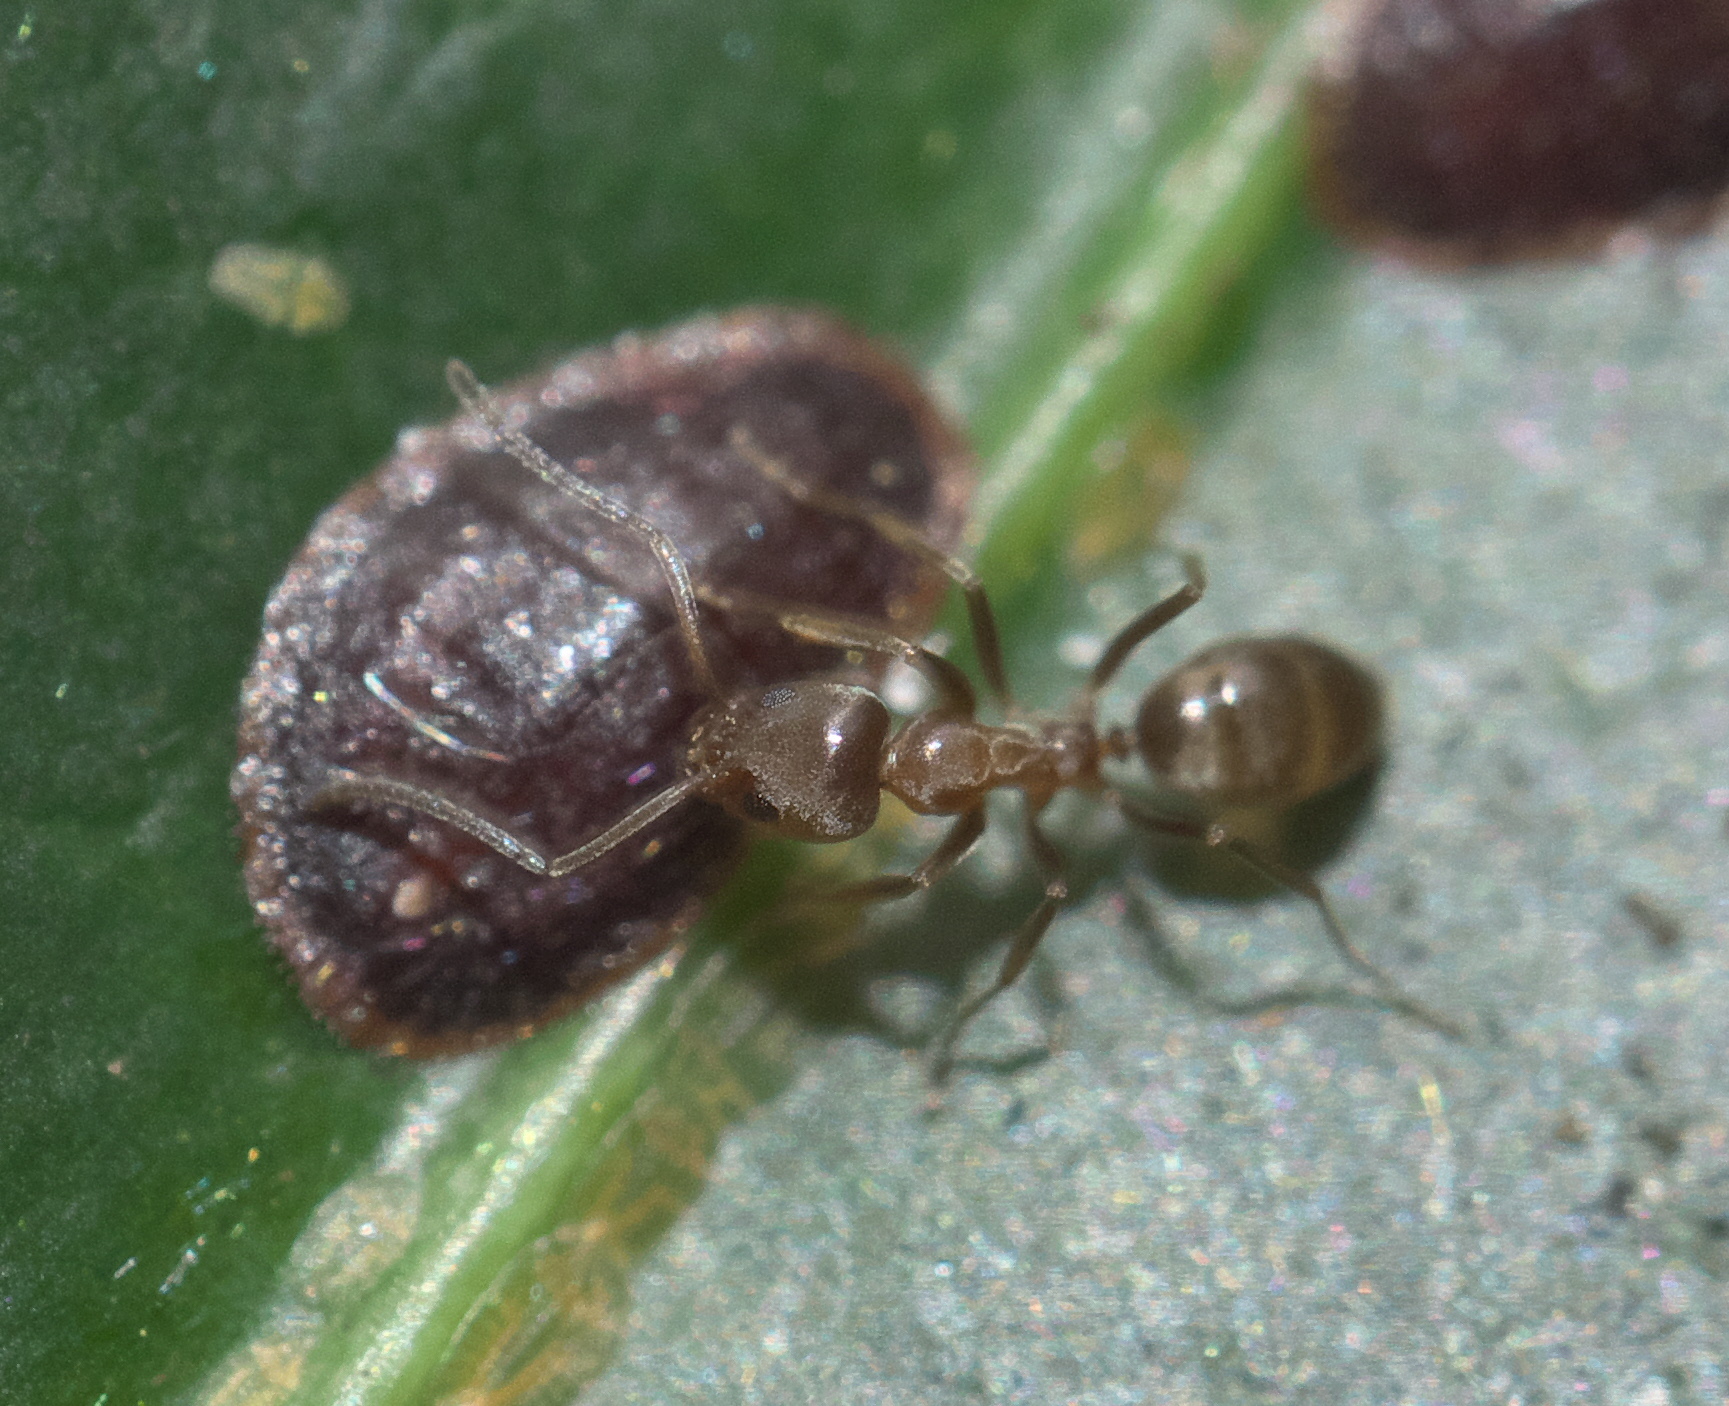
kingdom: Animalia
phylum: Arthropoda
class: Insecta
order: Hymenoptera
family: Formicidae
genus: Linepithema
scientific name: Linepithema humile
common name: Argentine ant
